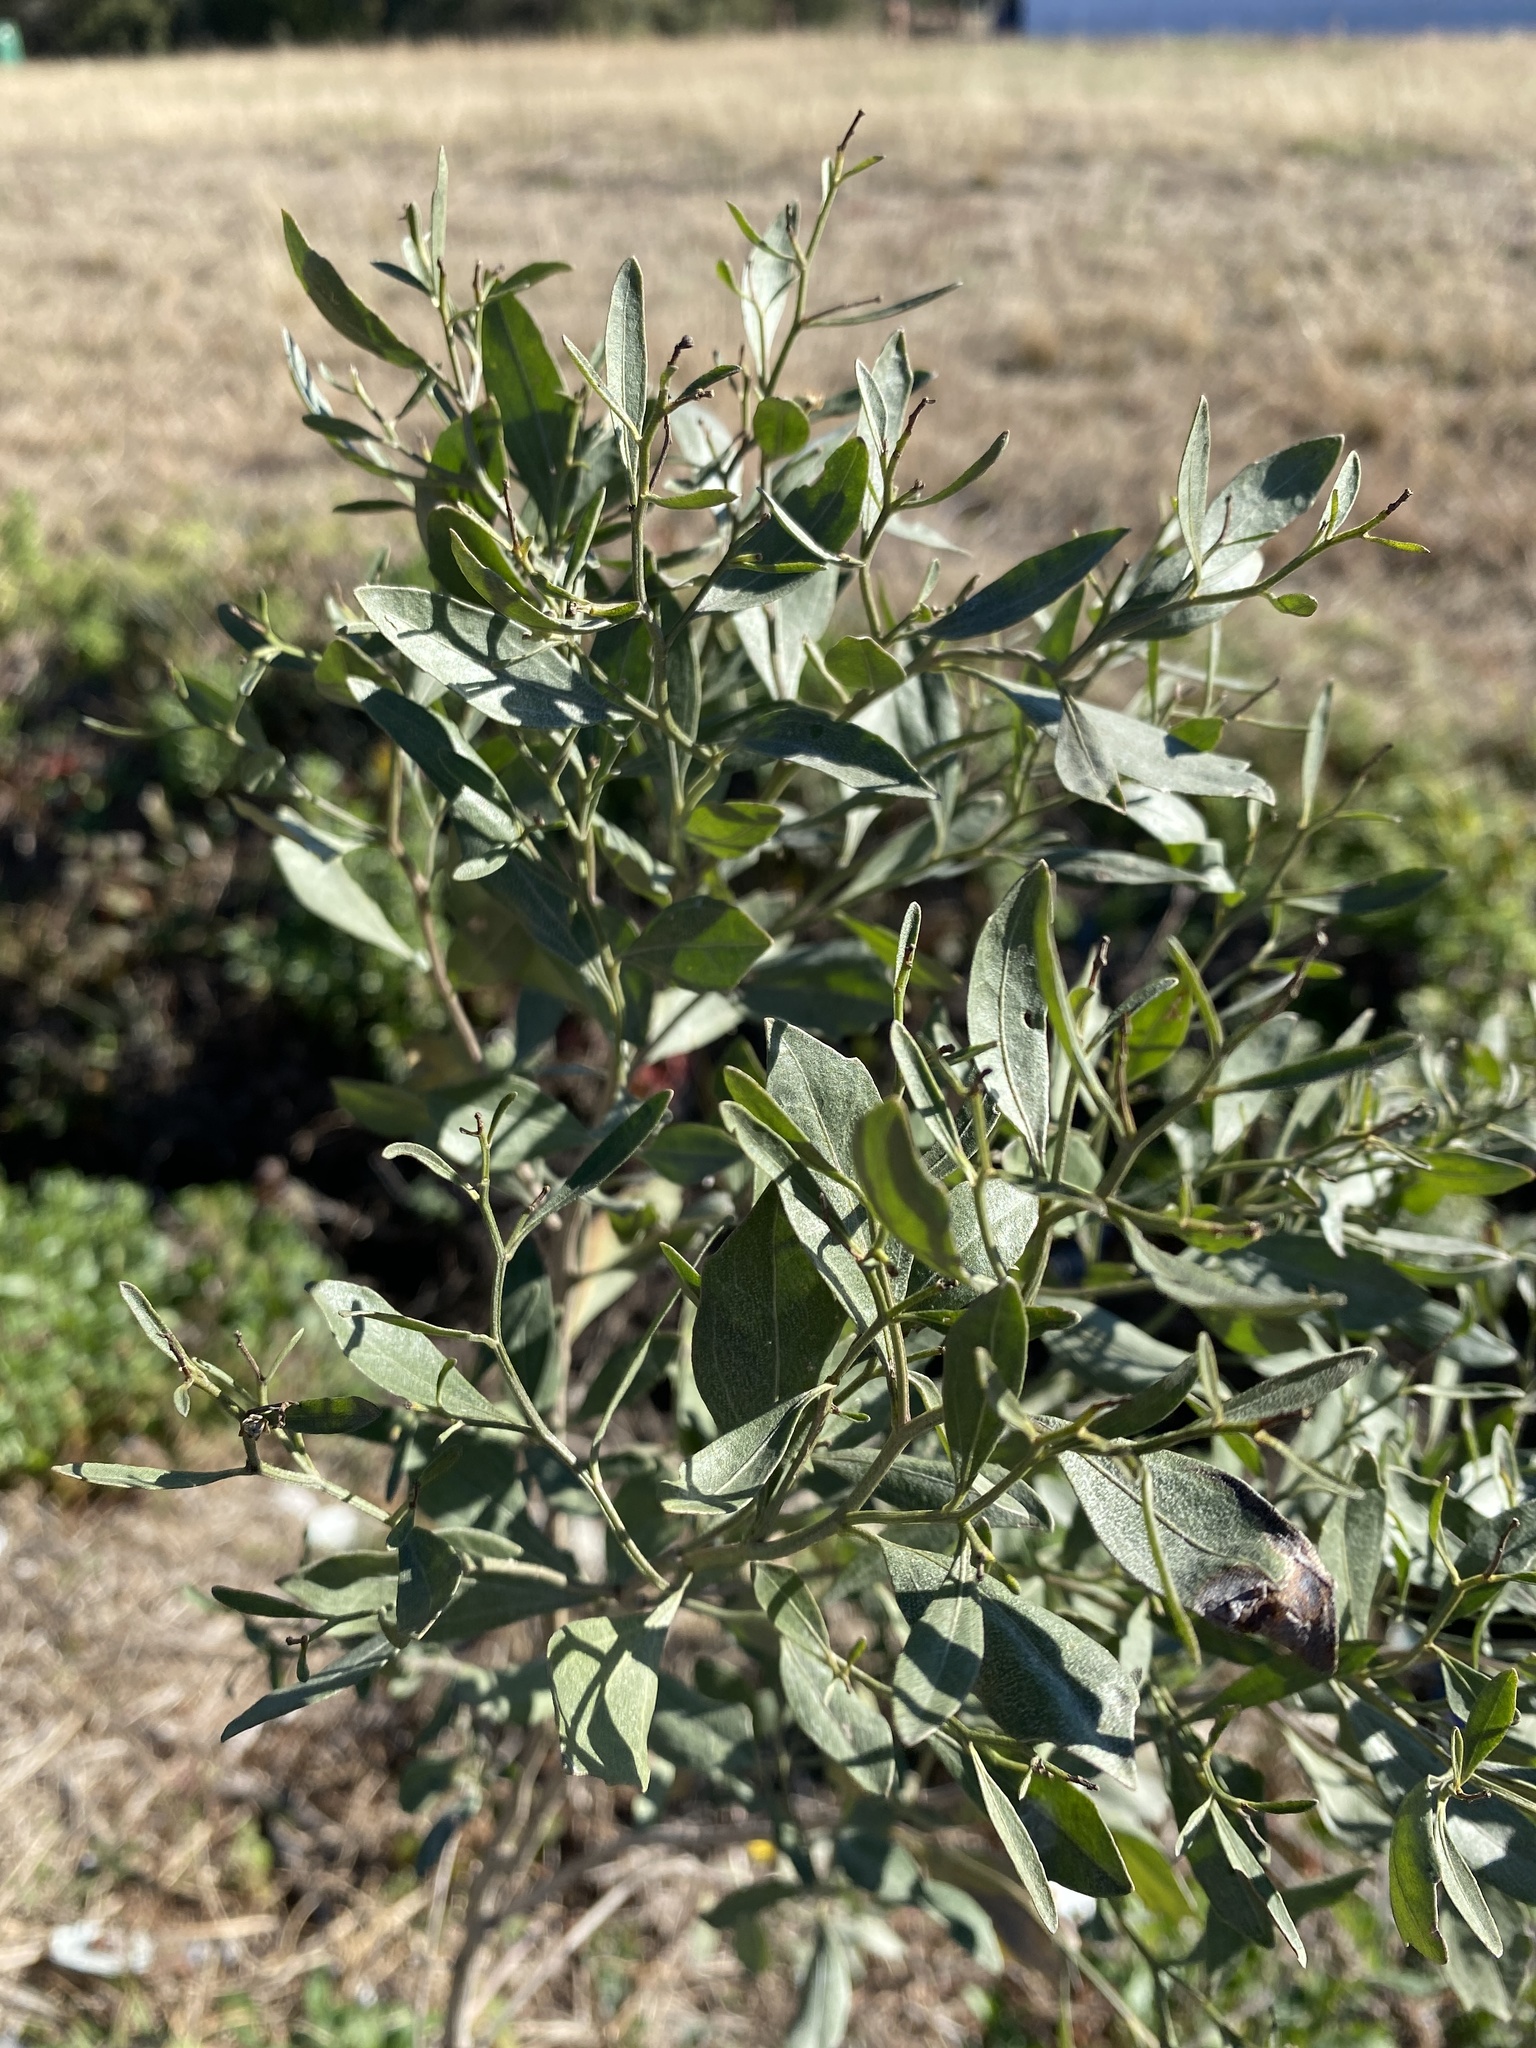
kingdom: Plantae
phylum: Tracheophyta
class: Magnoliopsida
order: Asterales
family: Asteraceae
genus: Baccharis
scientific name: Baccharis halimifolia
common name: Eastern baccharis
